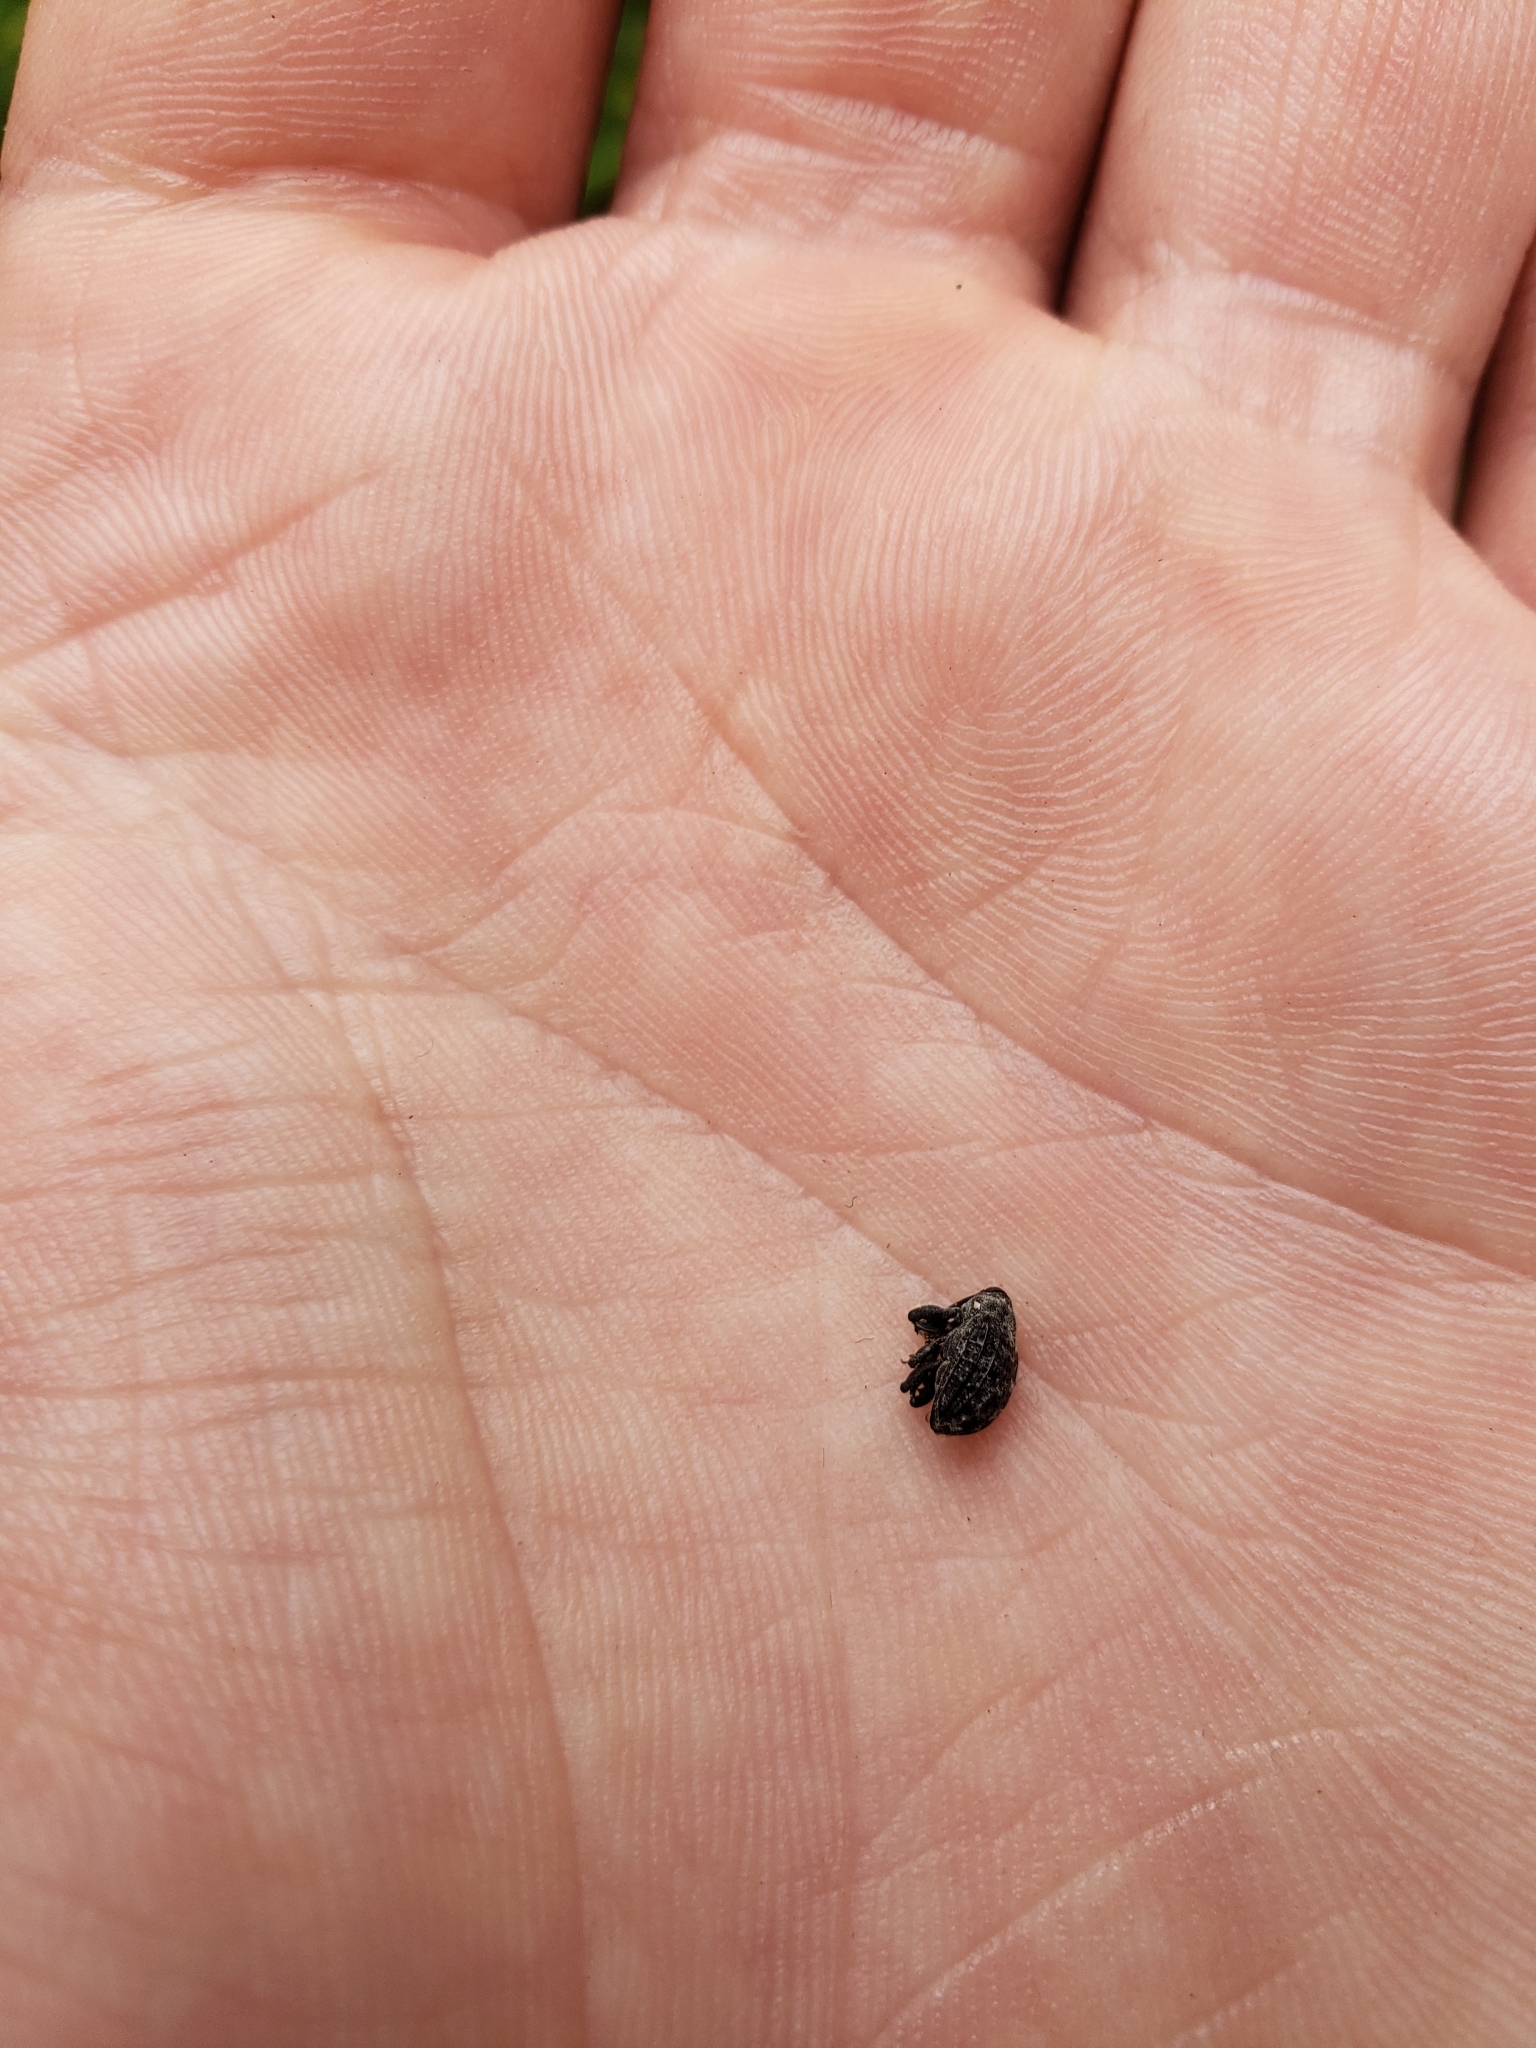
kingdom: Animalia
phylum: Arthropoda
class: Insecta
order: Coleoptera
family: Curculionidae
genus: Rhyssomatus
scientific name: Rhyssomatus lineaticollis
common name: Milkweed stem weevil
